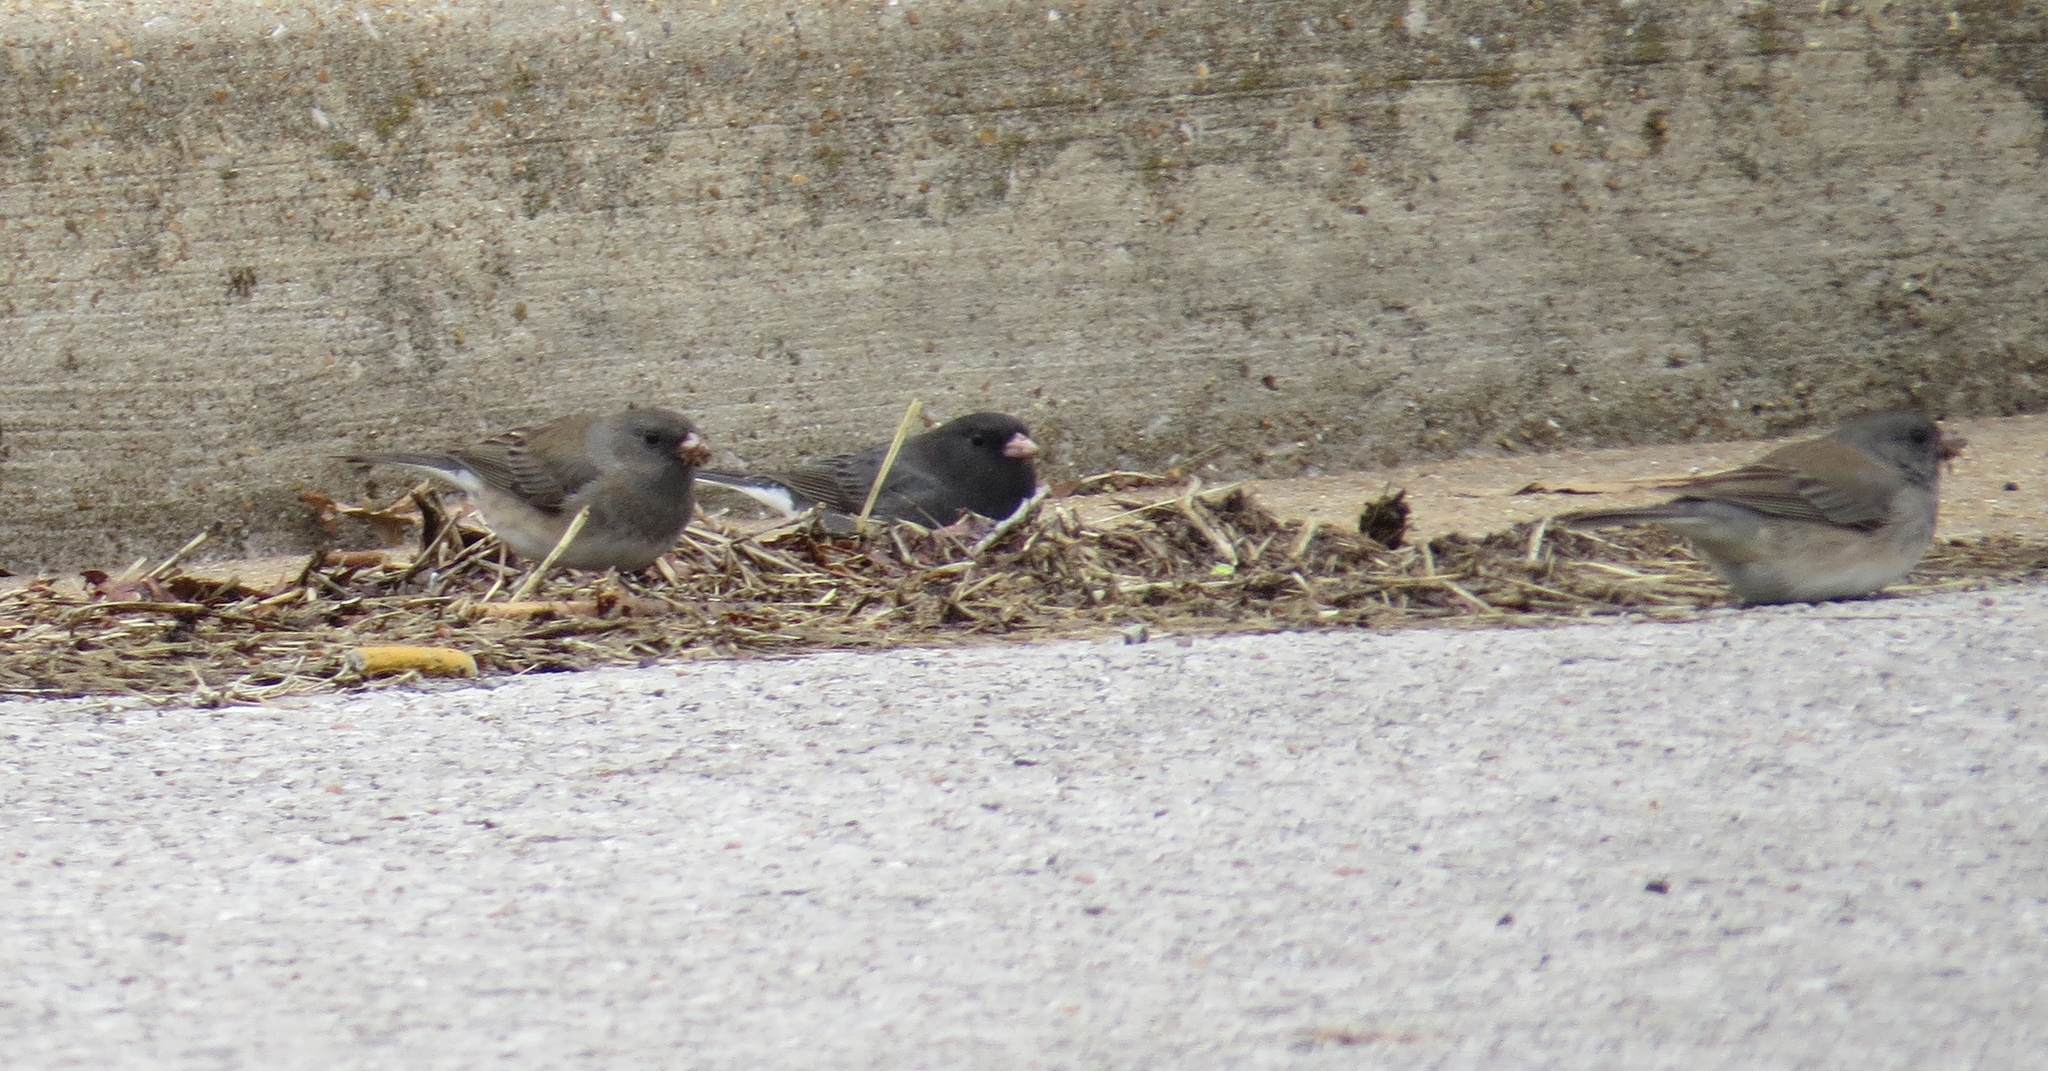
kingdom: Animalia
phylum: Chordata
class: Aves
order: Passeriformes
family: Passerellidae
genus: Junco
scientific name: Junco hyemalis
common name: Dark-eyed junco
